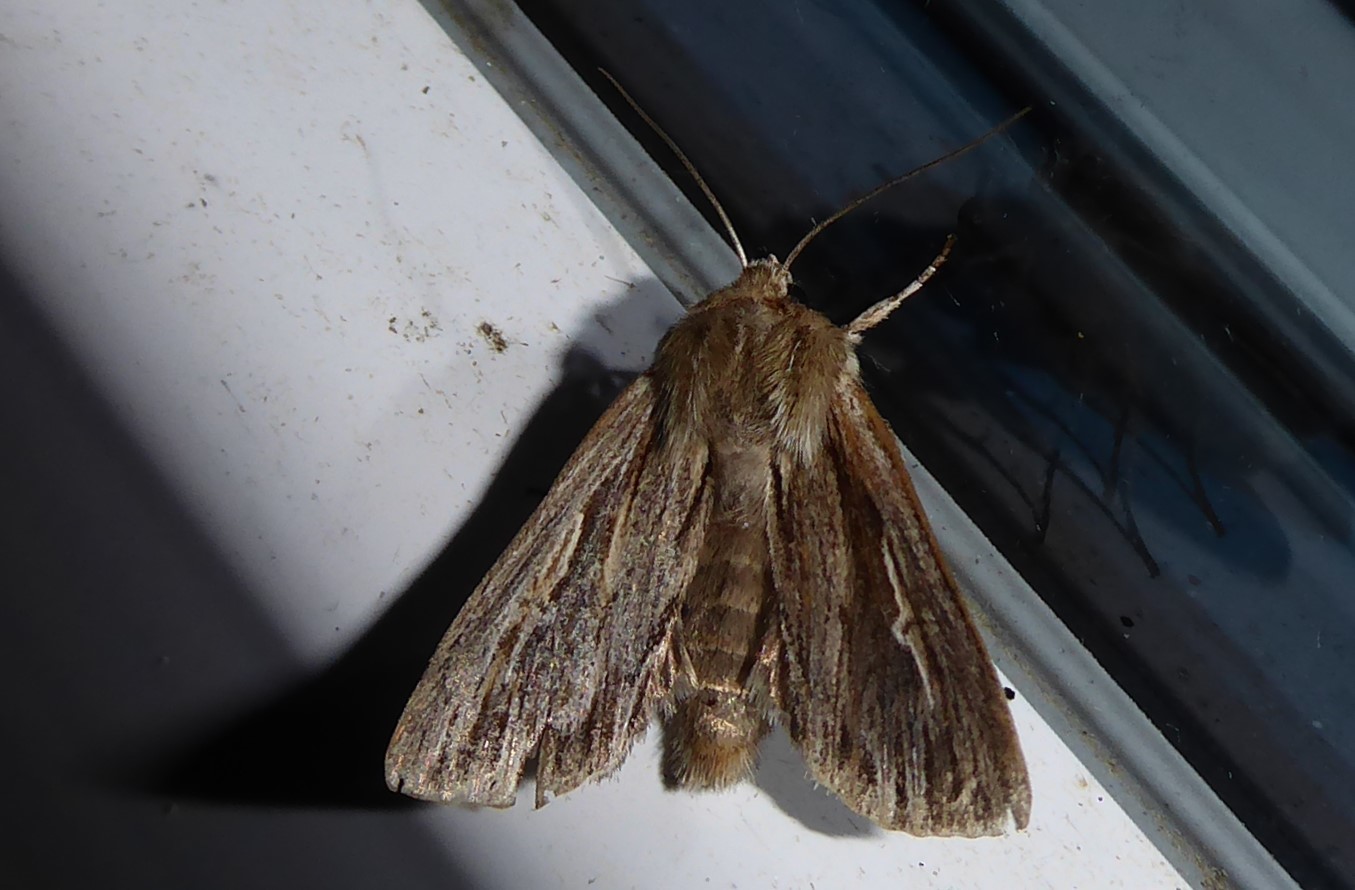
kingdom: Animalia
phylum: Arthropoda
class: Insecta
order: Lepidoptera
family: Noctuidae
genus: Persectania
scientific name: Persectania aversa
